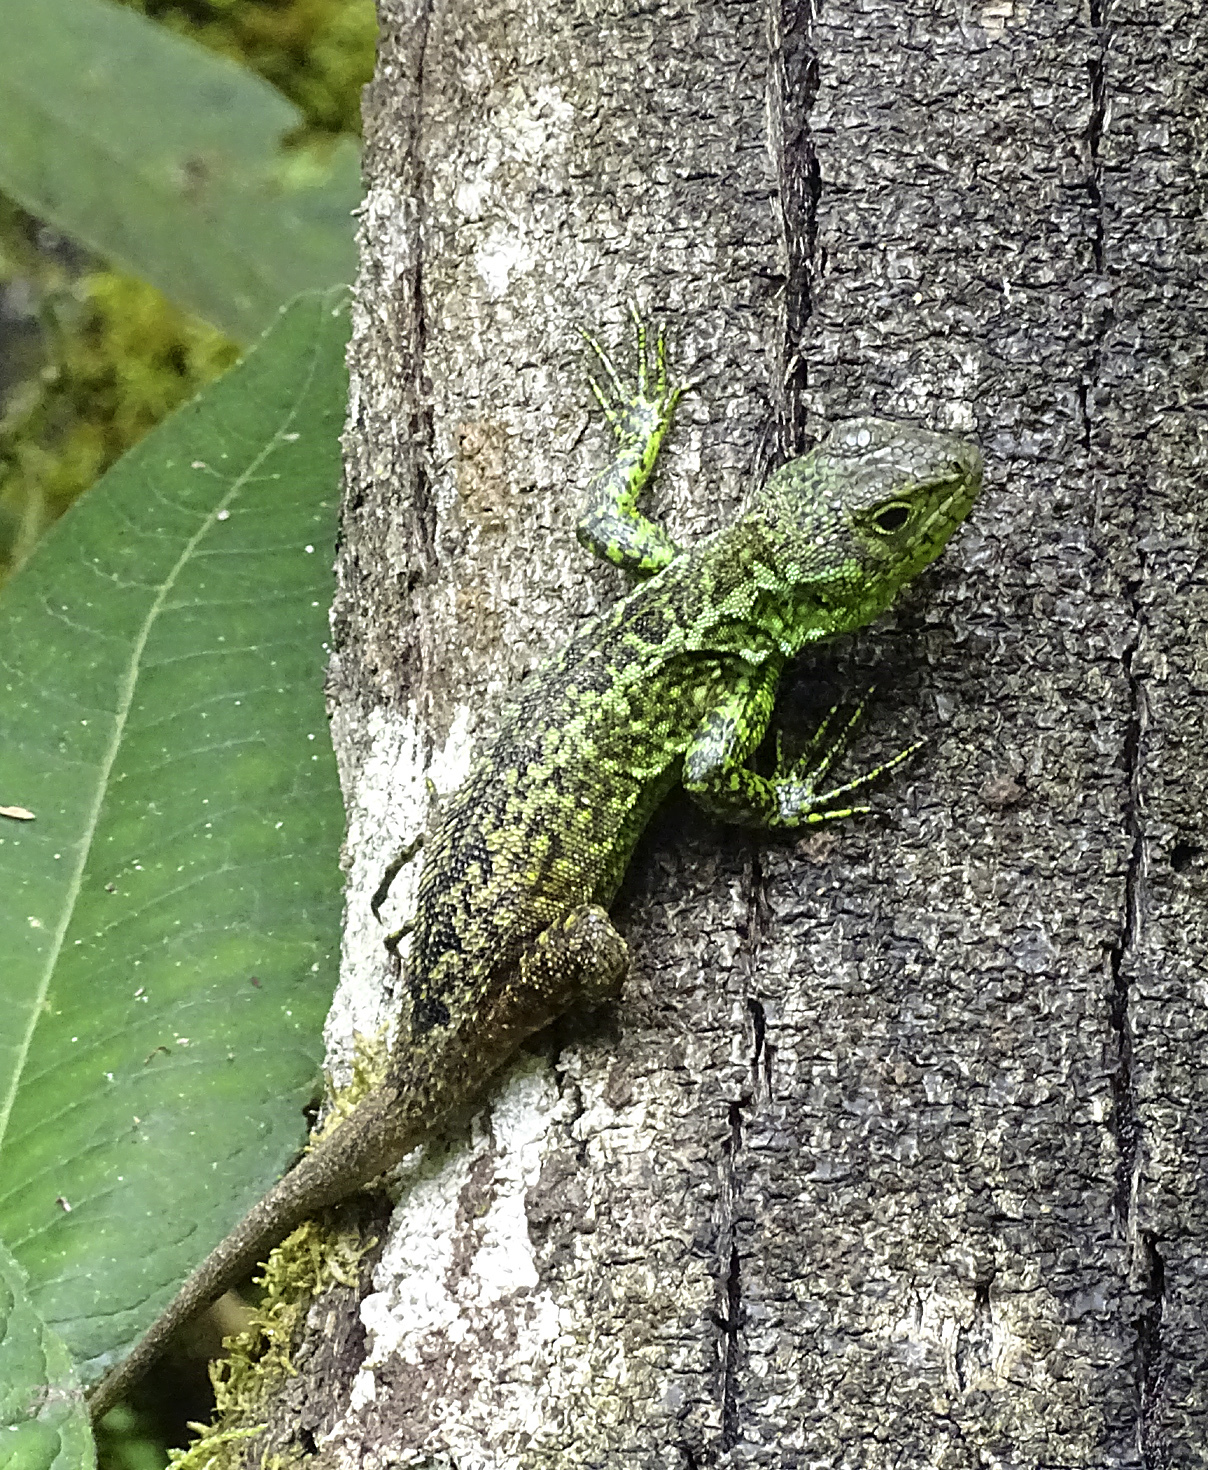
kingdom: Animalia
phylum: Chordata
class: Squamata
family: Tropiduridae
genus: Stenocercus
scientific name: Stenocercus varius
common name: Keeled whorltail iguana
